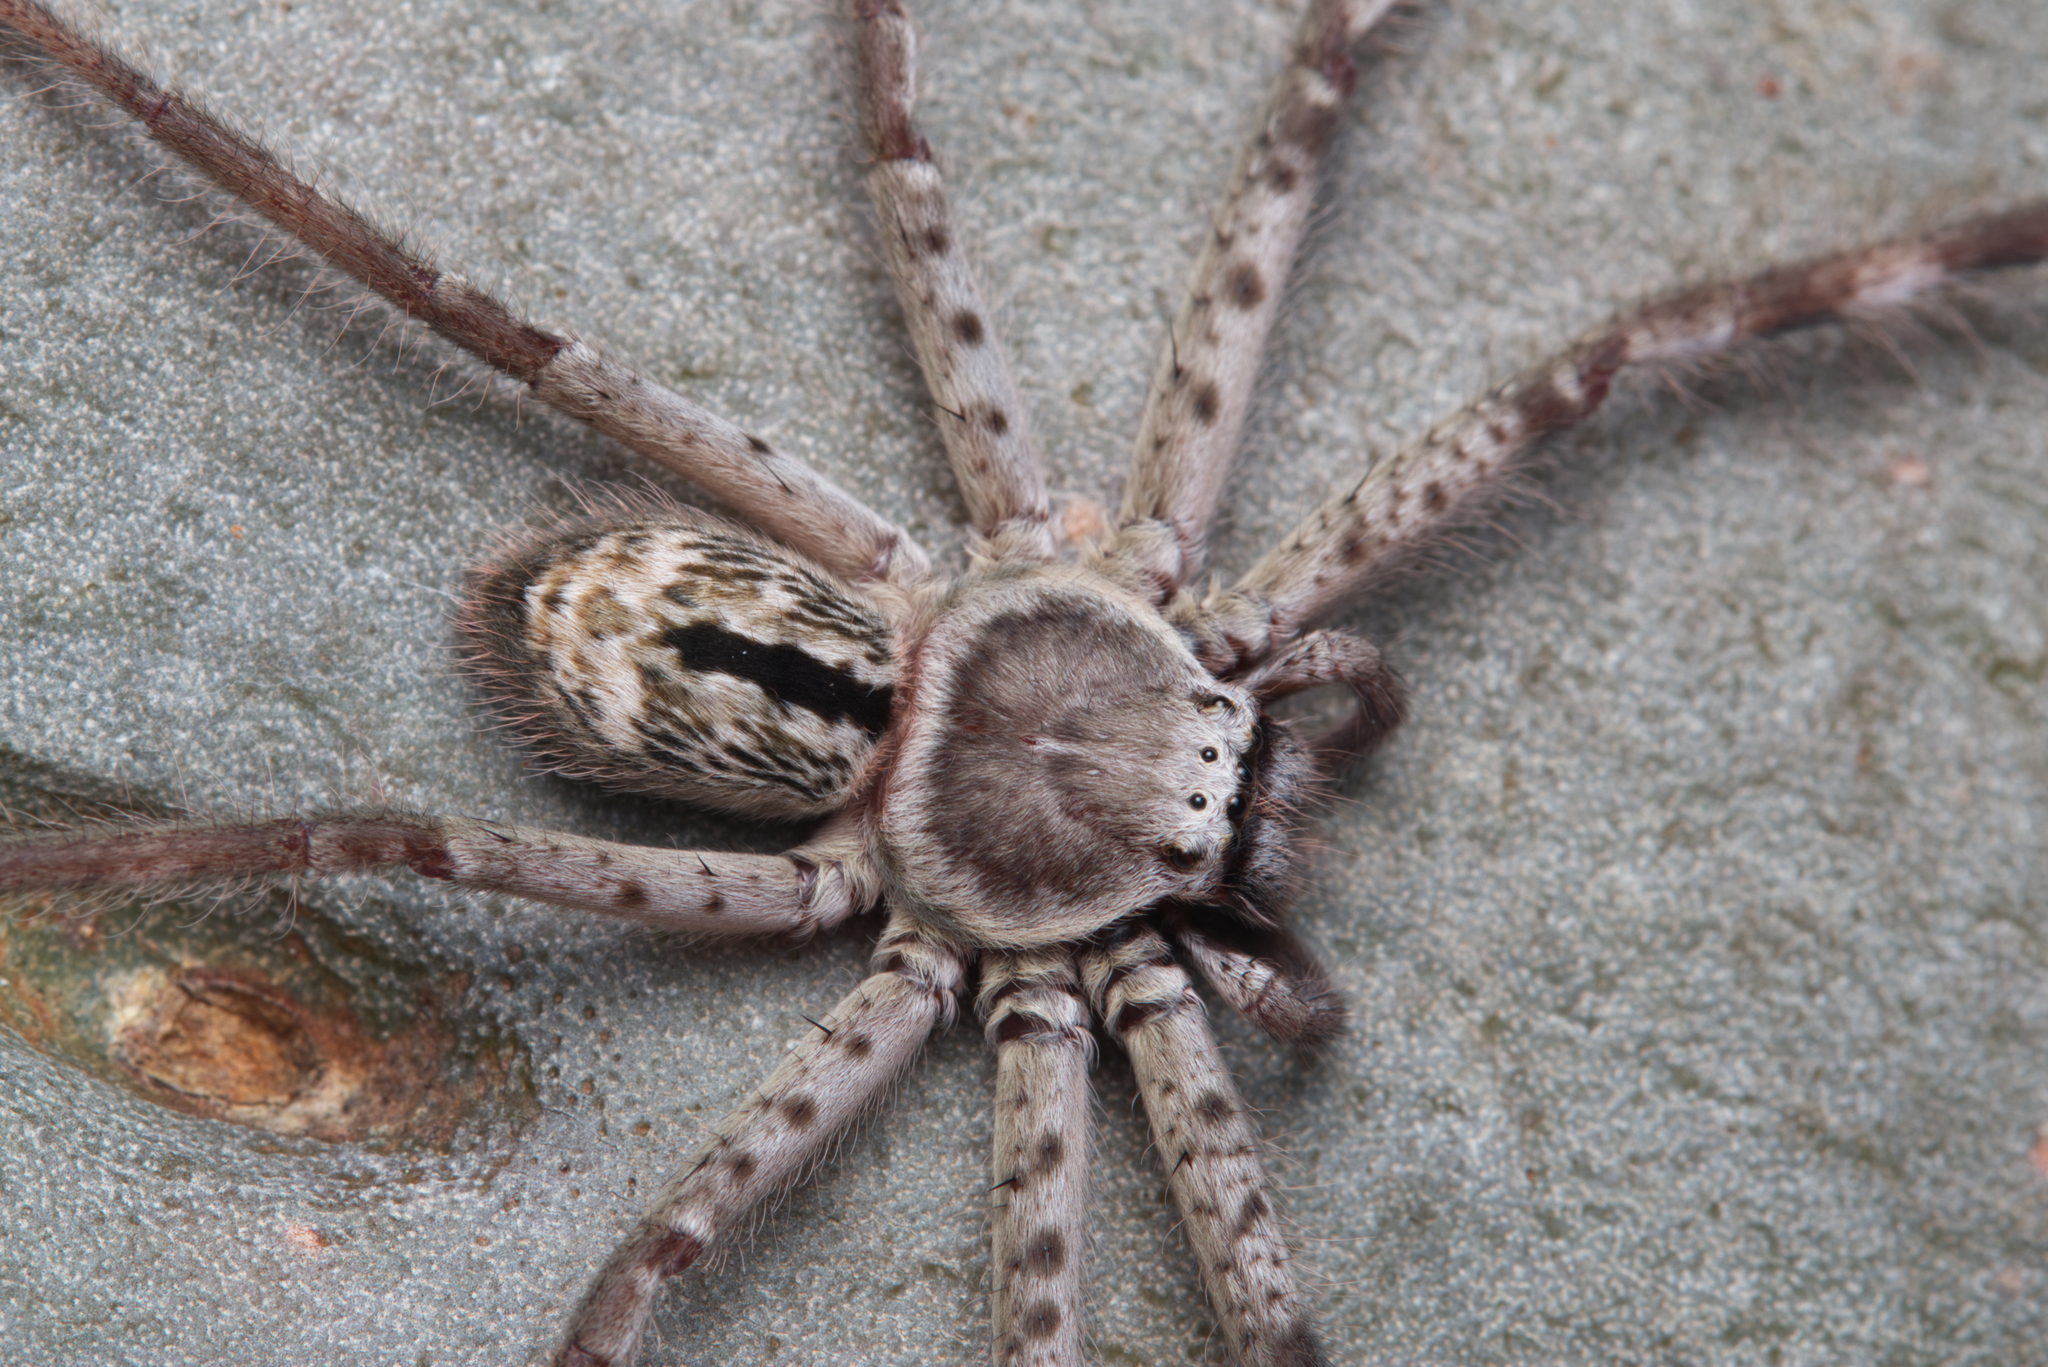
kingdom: Animalia
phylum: Arthropoda
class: Arachnida
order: Araneae
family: Sparassidae
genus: Holconia
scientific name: Holconia immanis
